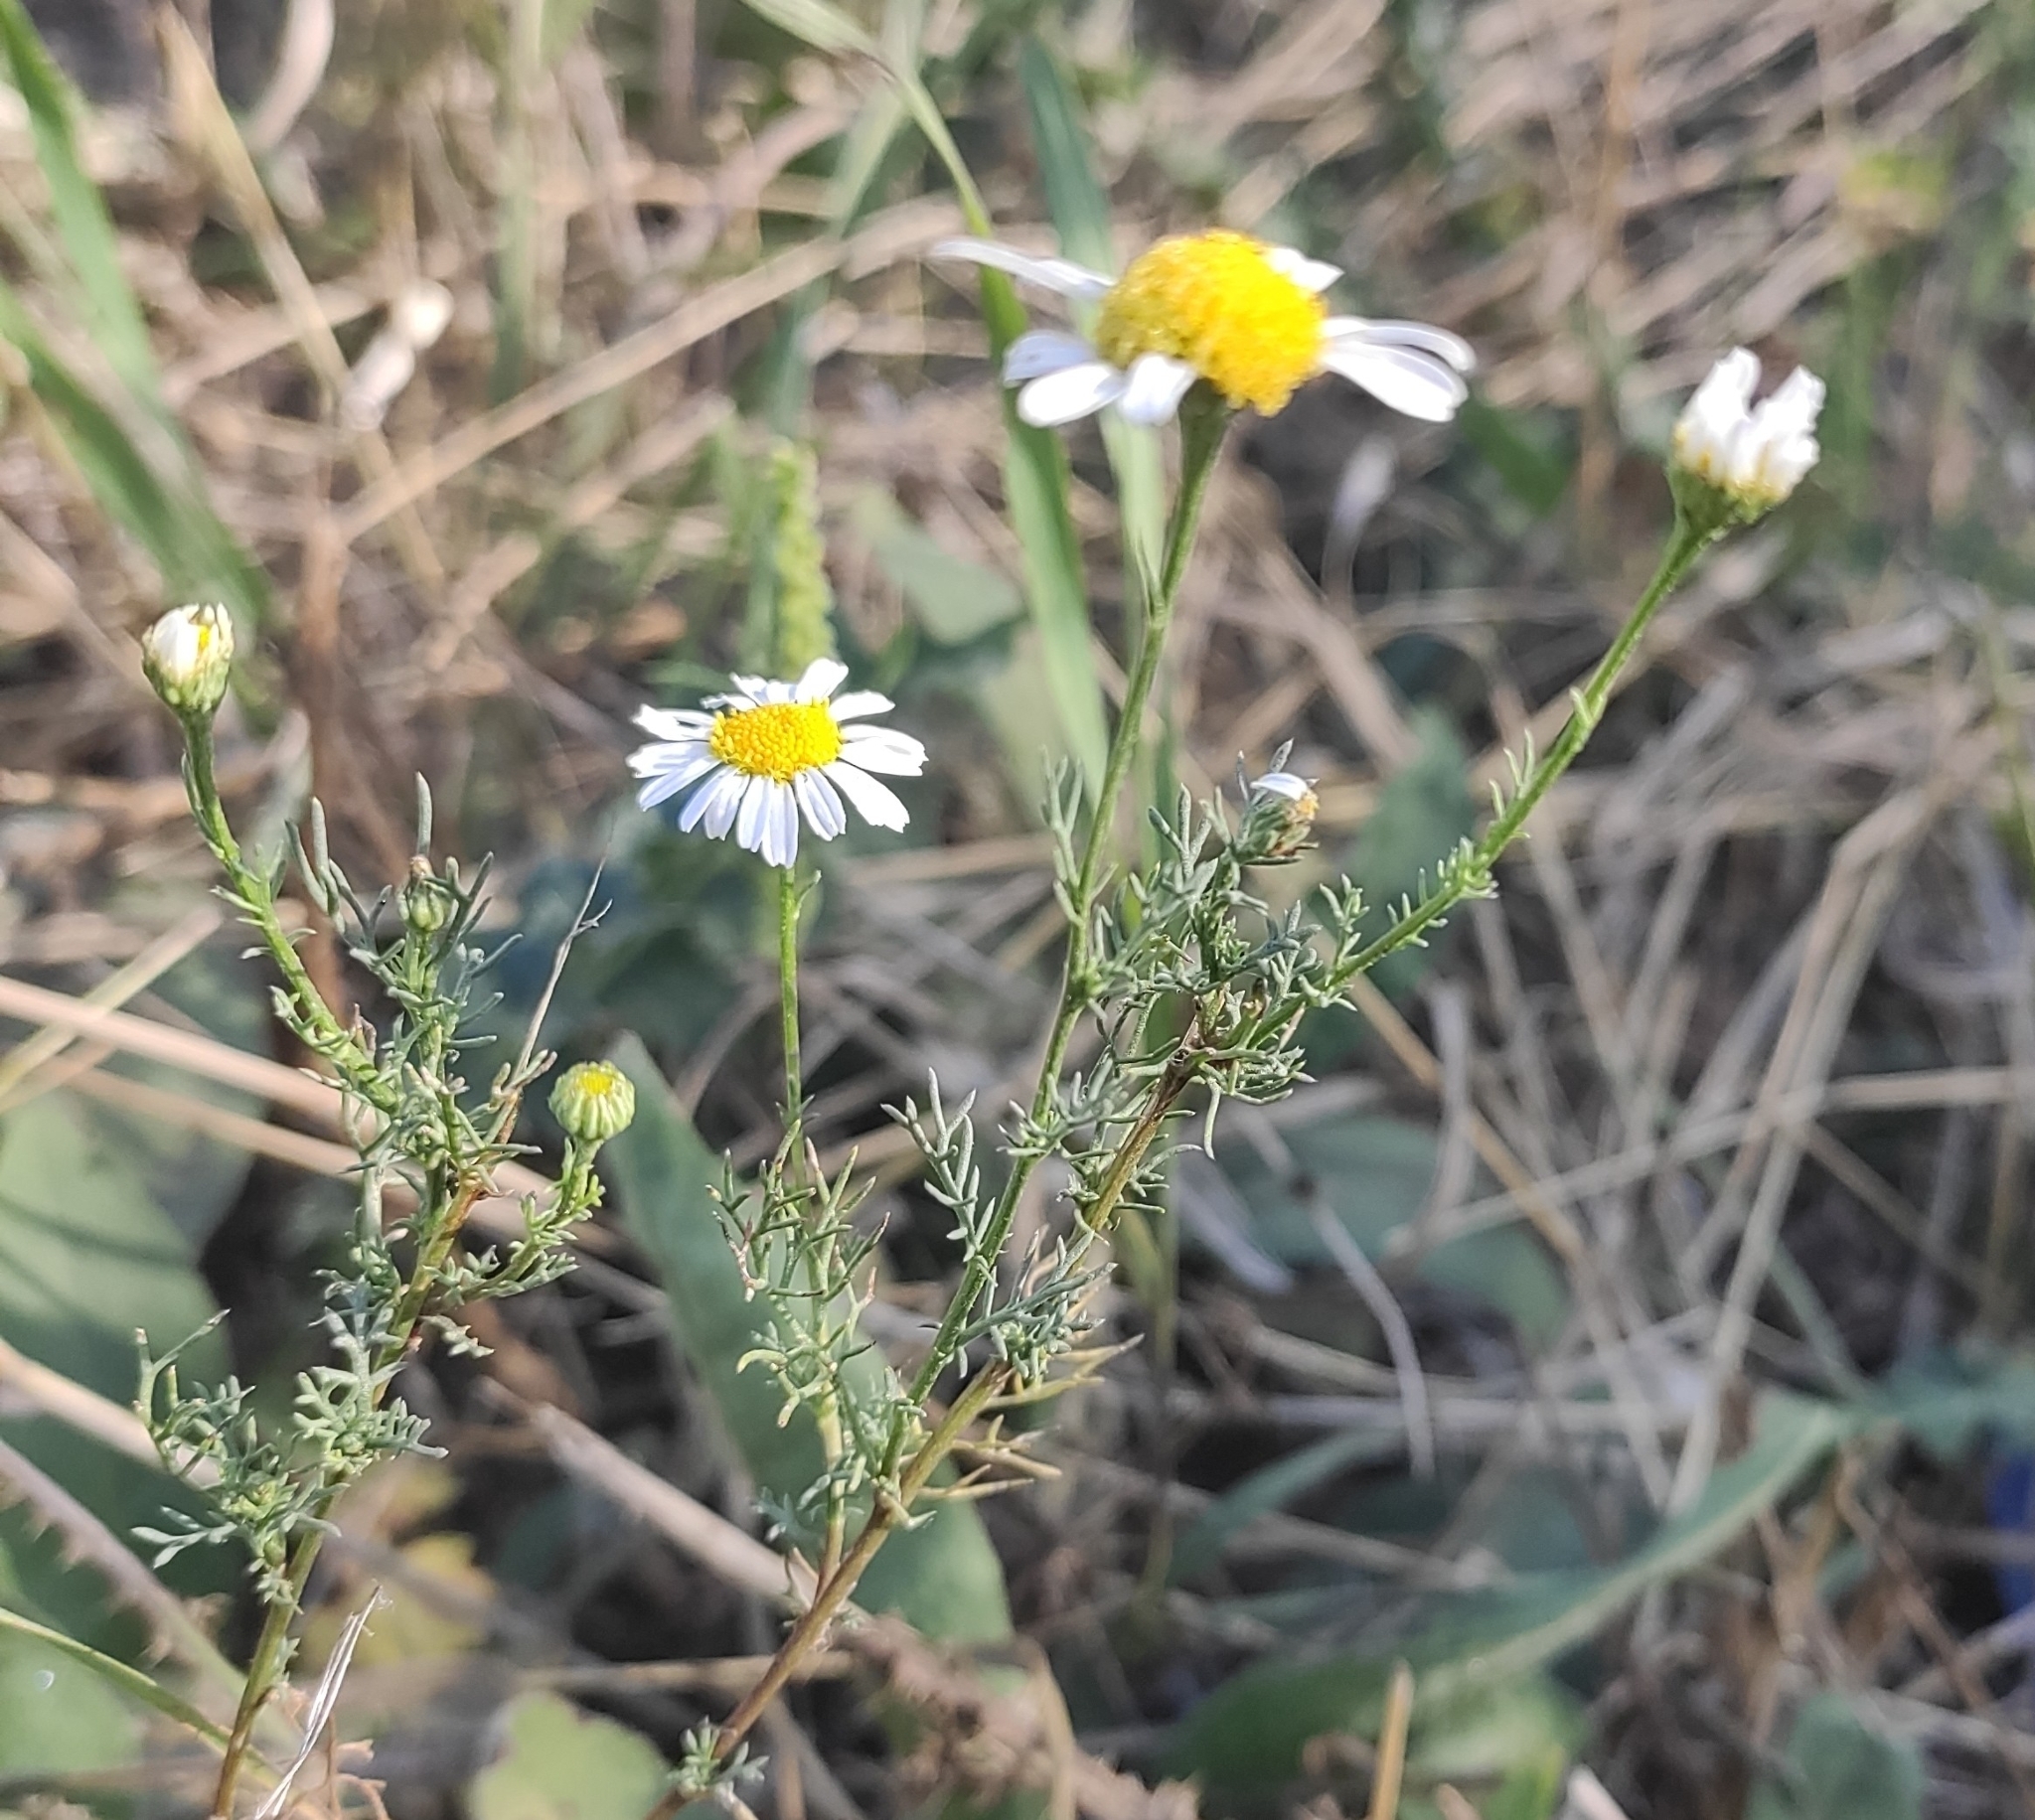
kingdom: Plantae
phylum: Tracheophyta
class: Magnoliopsida
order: Asterales
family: Asteraceae
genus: Tripleurospermum
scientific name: Tripleurospermum inodorum
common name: Scentless mayweed
